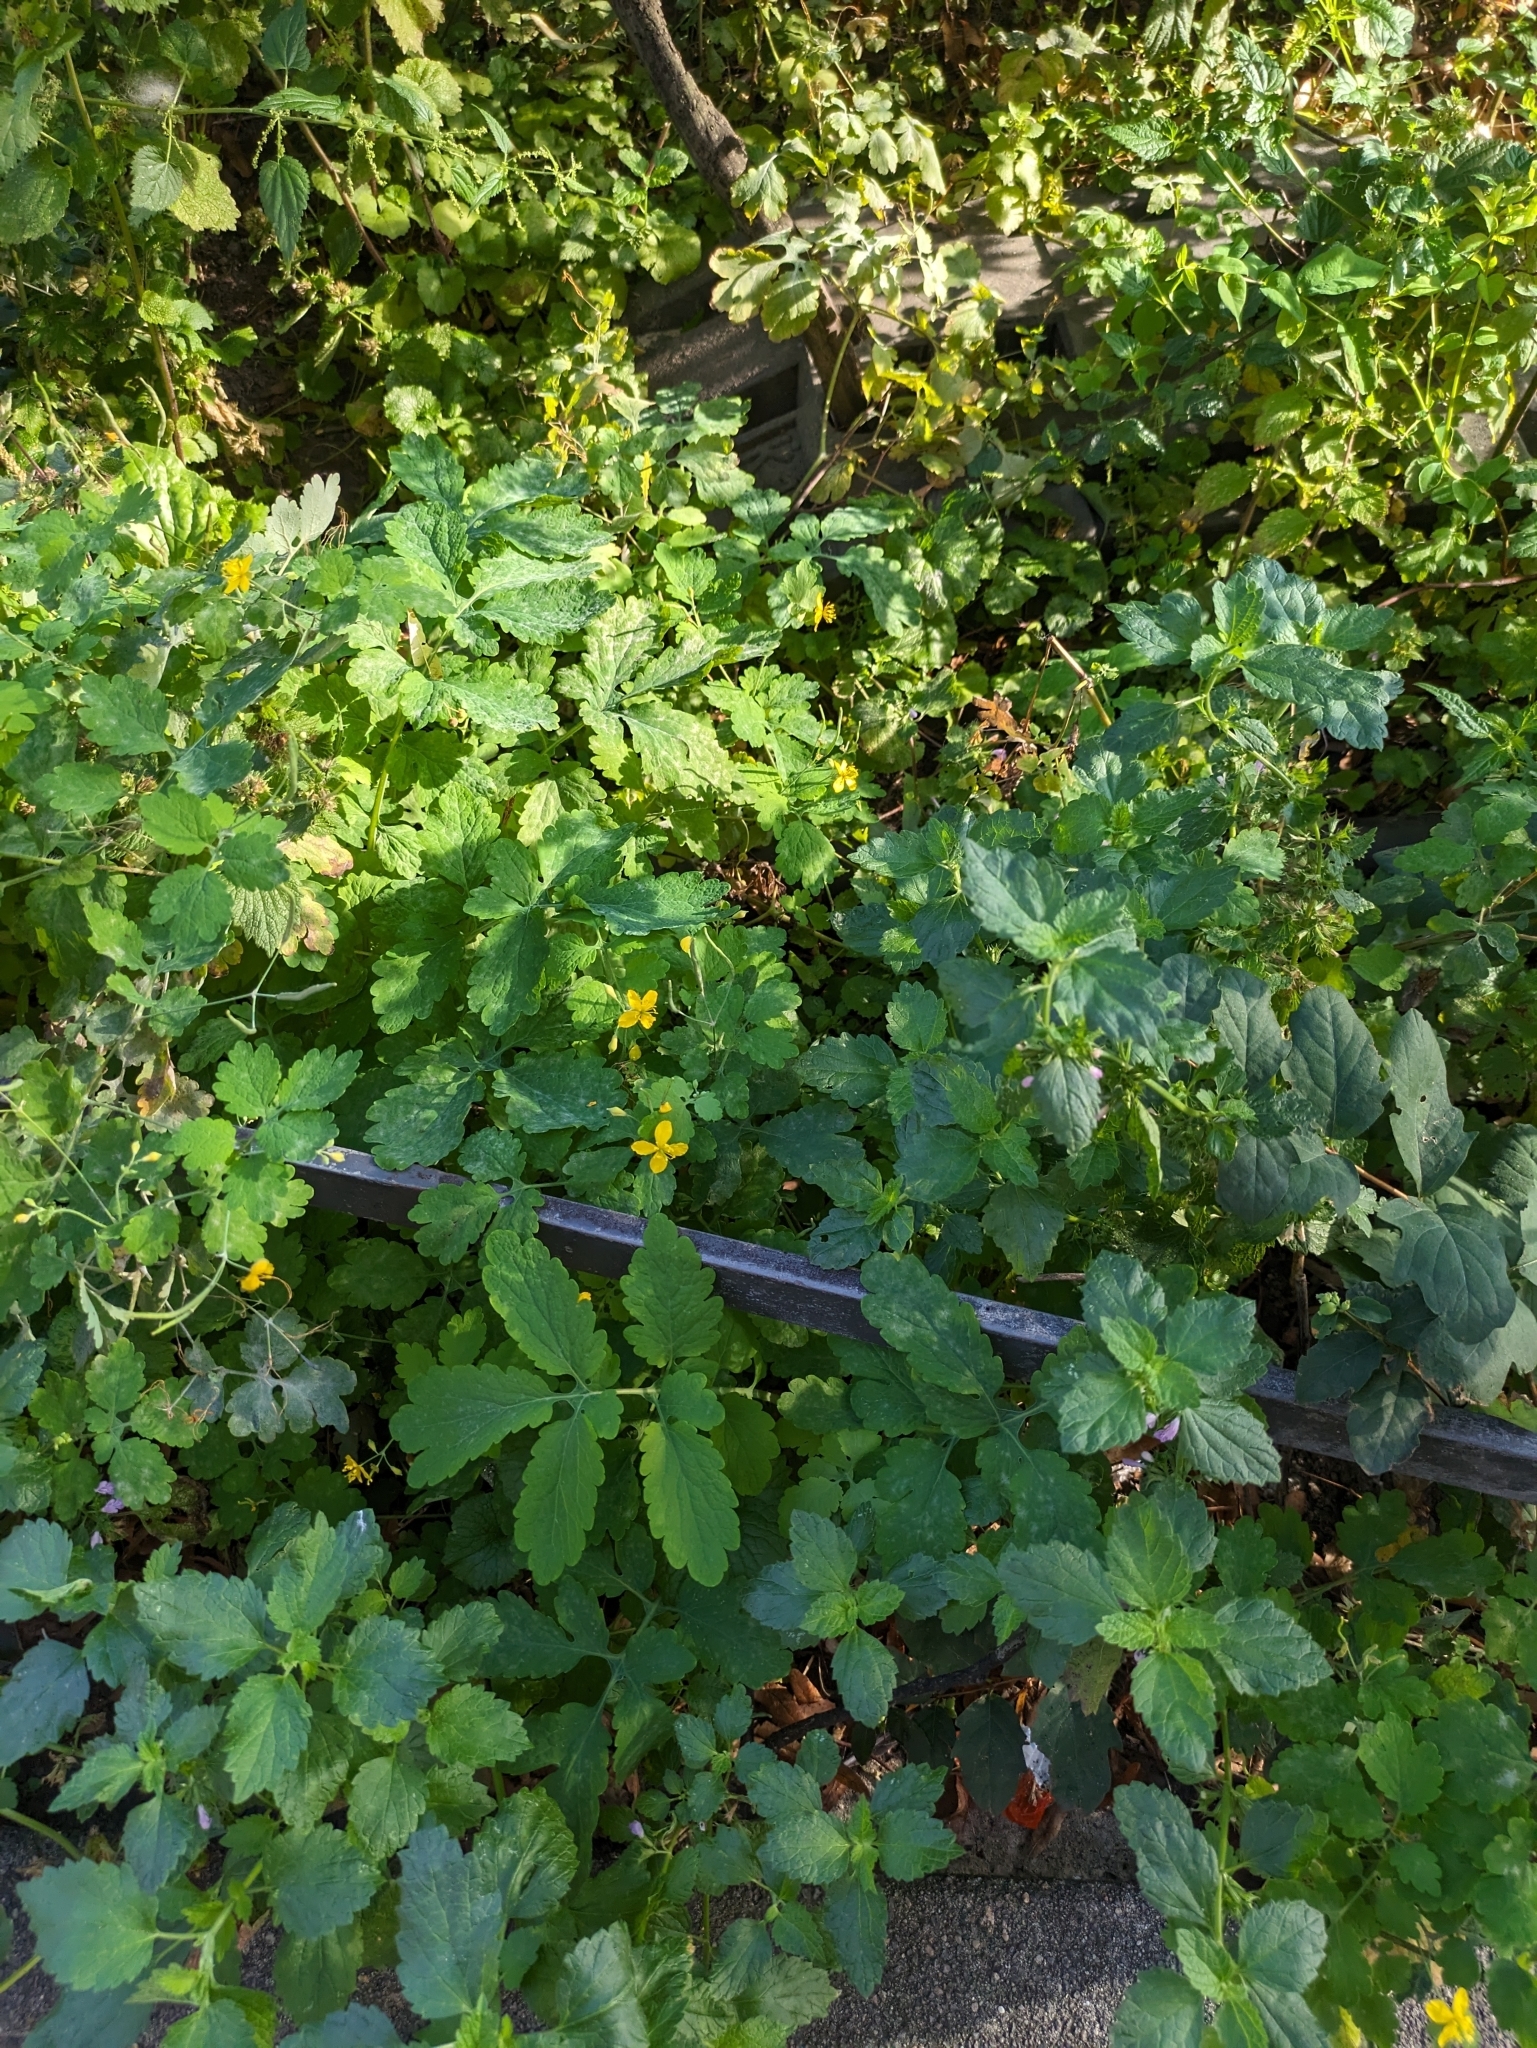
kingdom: Plantae
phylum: Tracheophyta
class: Magnoliopsida
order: Ranunculales
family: Papaveraceae
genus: Chelidonium
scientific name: Chelidonium majus
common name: Greater celandine
